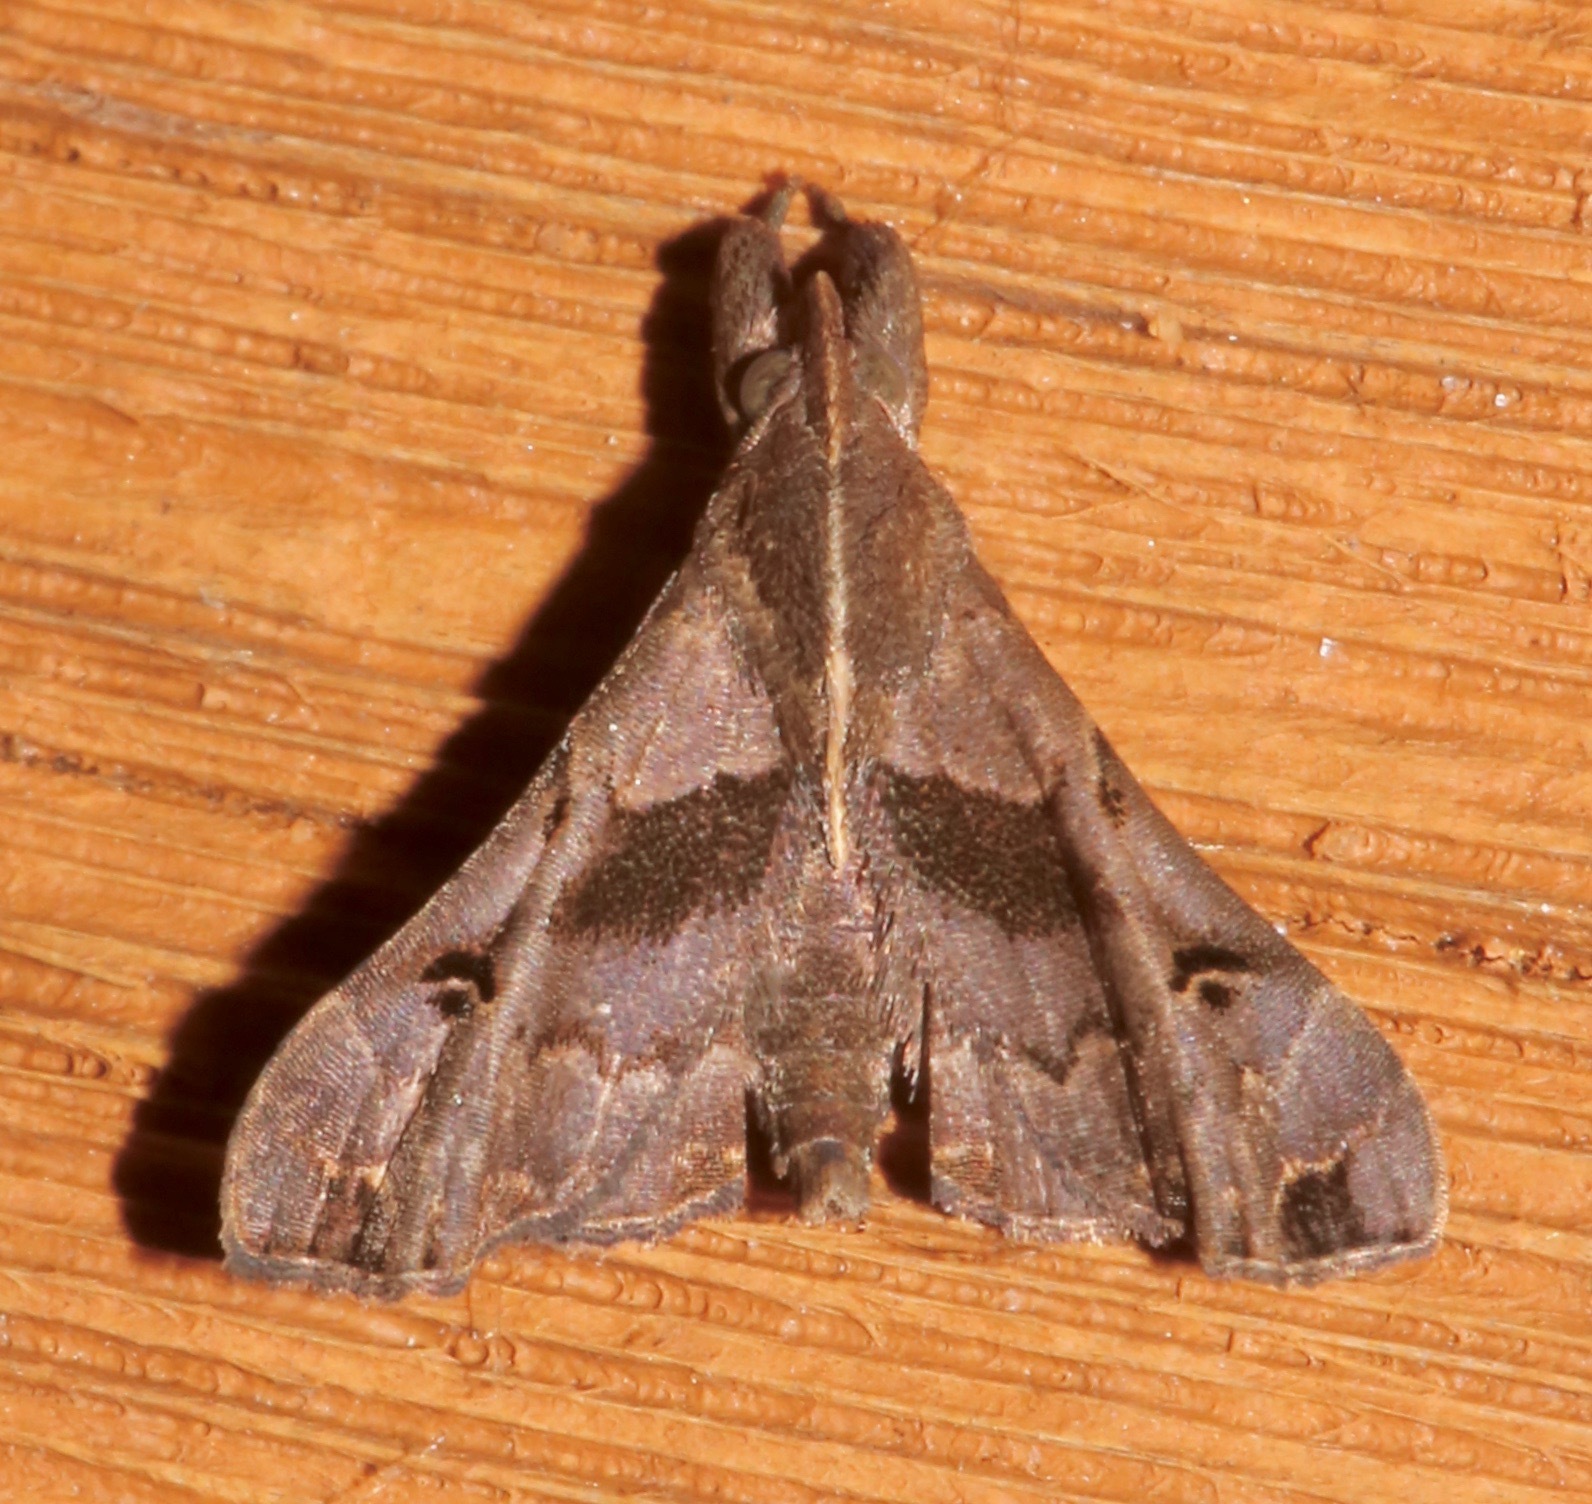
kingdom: Animalia
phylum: Arthropoda
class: Insecta
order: Lepidoptera
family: Erebidae
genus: Palthis
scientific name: Palthis asopialis
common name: Faint-spotted palthis moth
